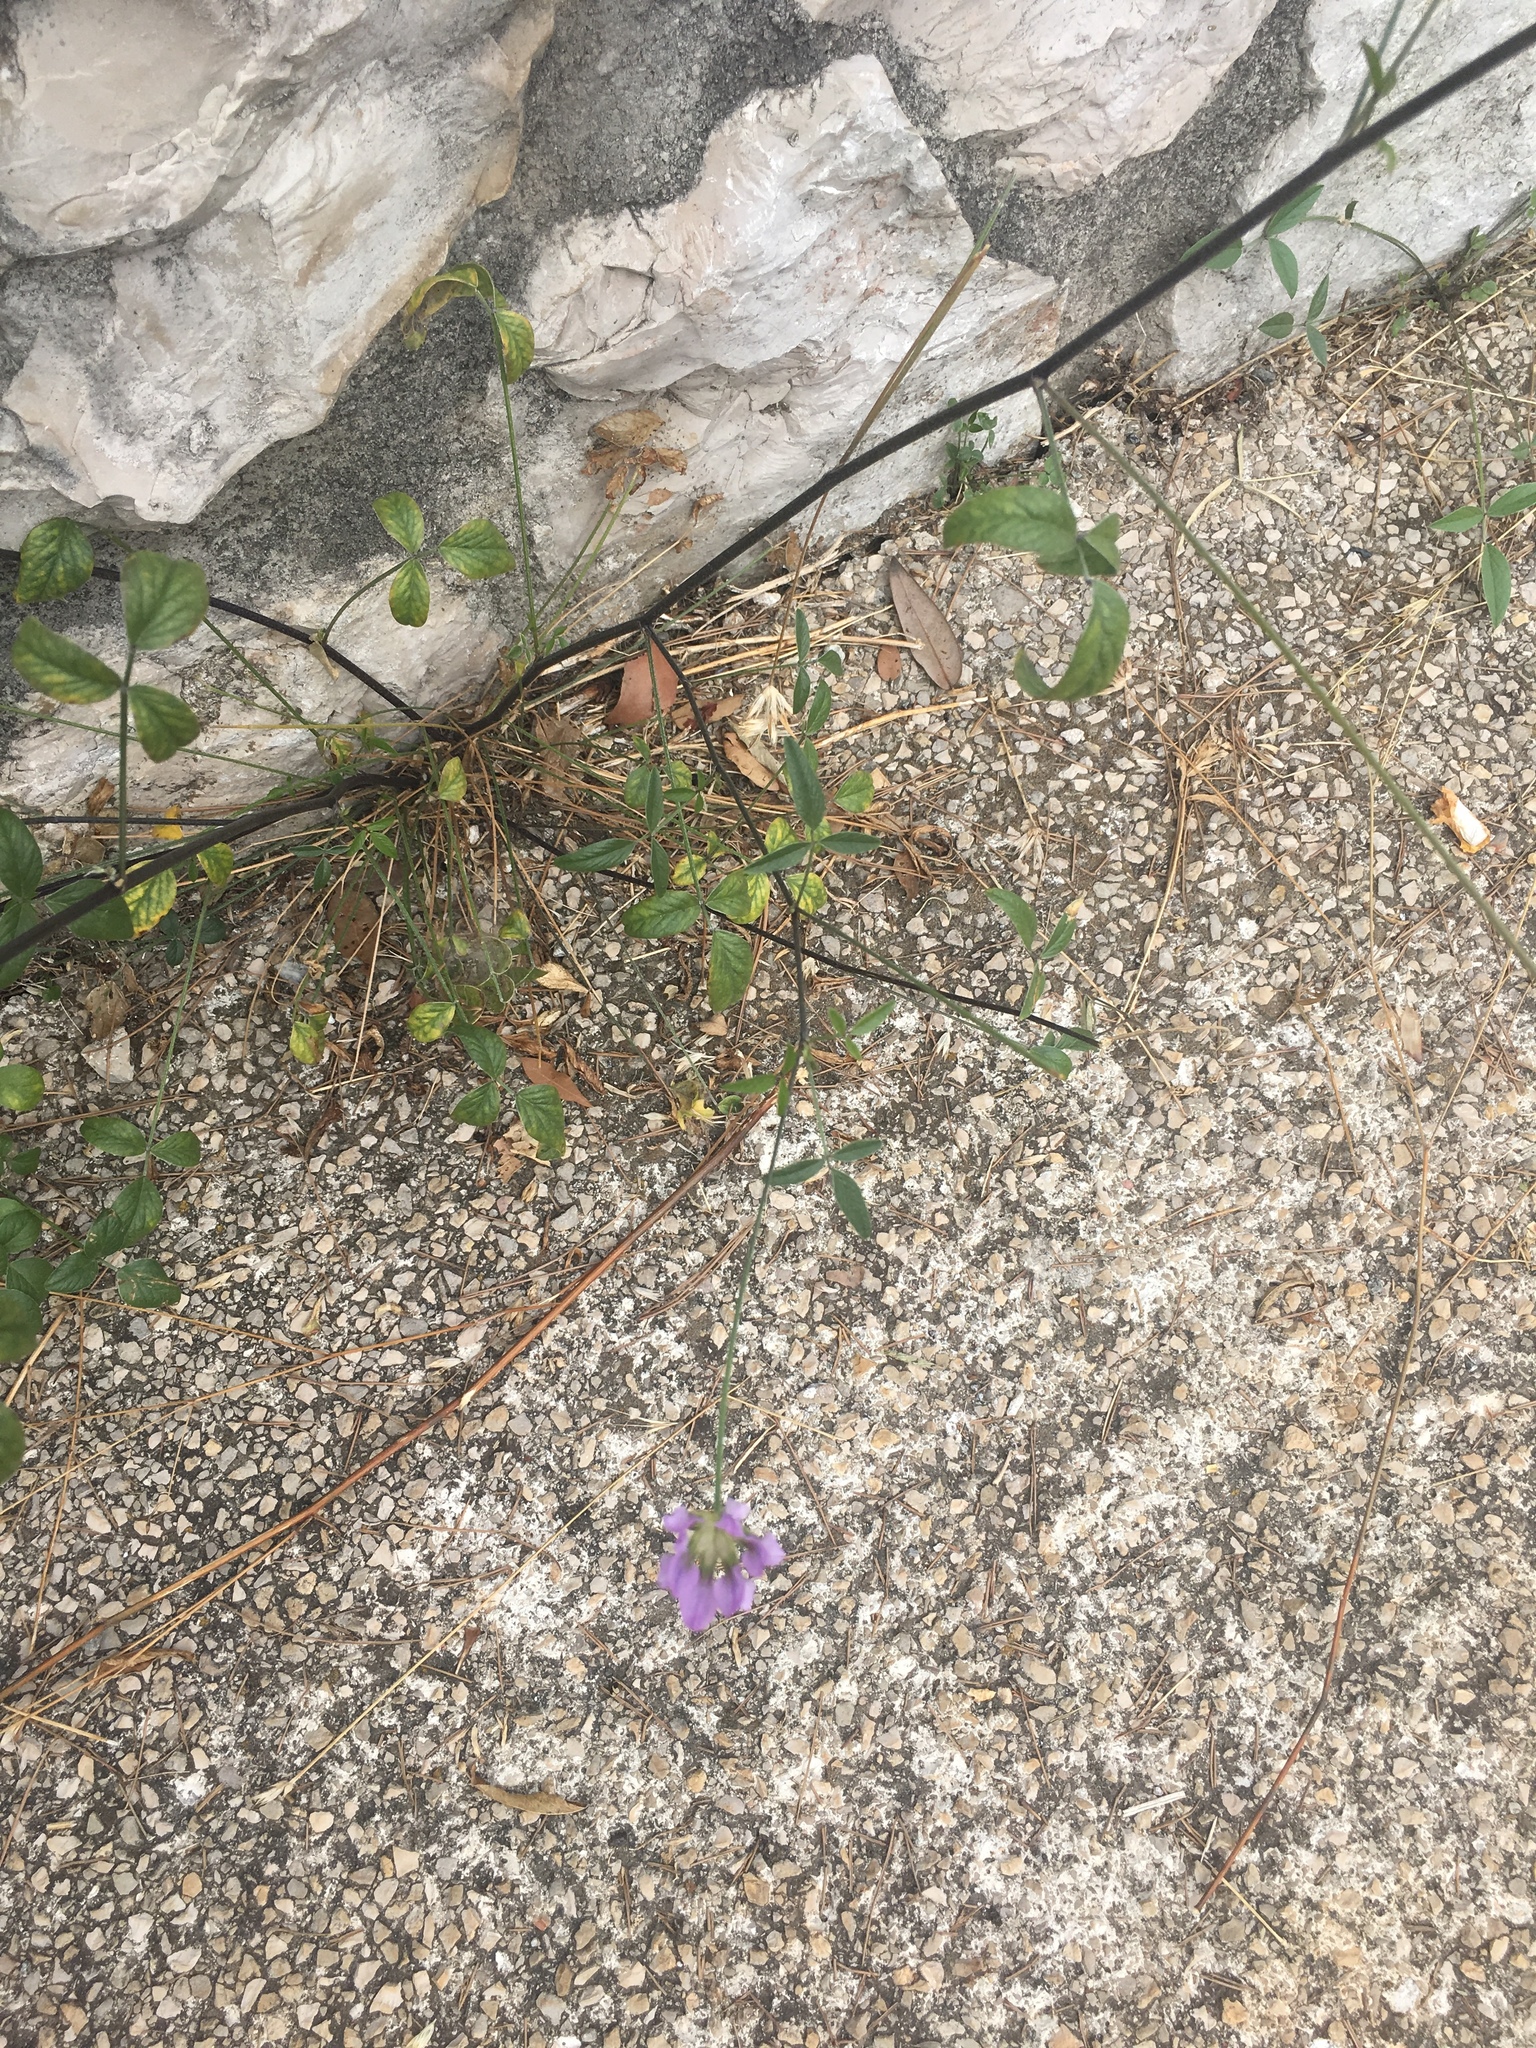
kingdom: Plantae
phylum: Tracheophyta
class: Magnoliopsida
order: Fabales
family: Fabaceae
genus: Bituminaria
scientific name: Bituminaria bituminosa
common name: Arabian pea
